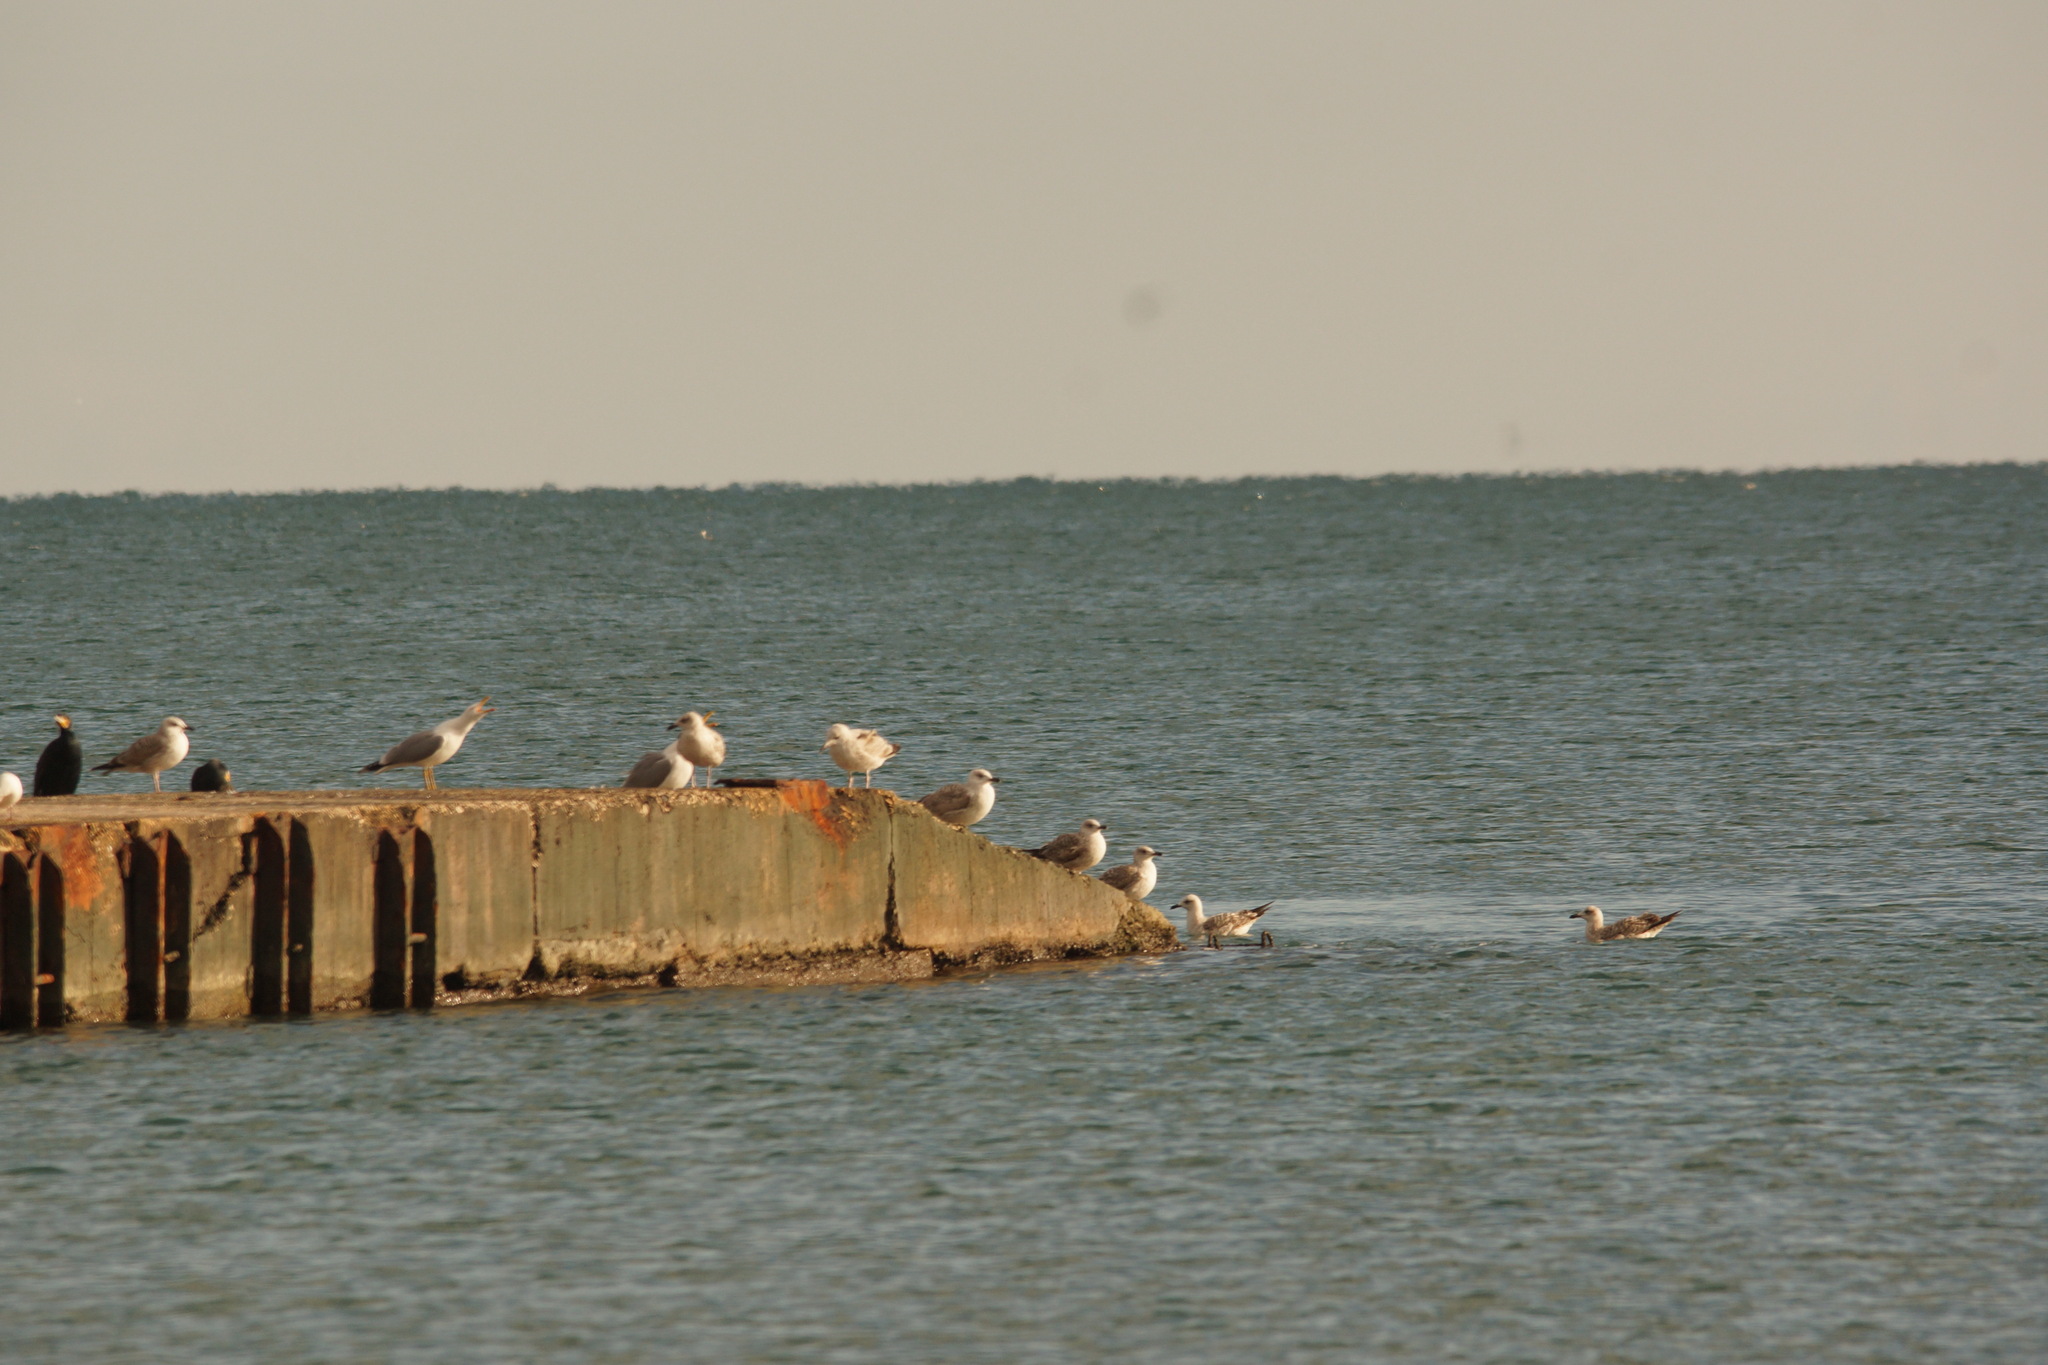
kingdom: Animalia
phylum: Chordata
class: Aves
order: Charadriiformes
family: Laridae
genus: Larus
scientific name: Larus michahellis
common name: Yellow-legged gull
